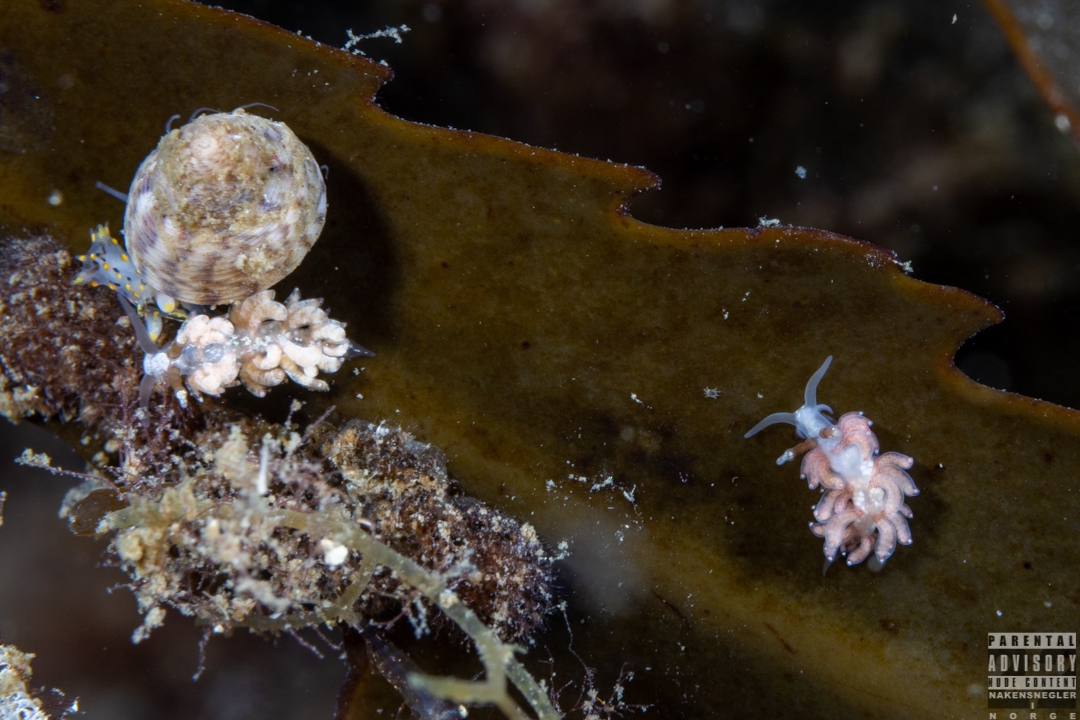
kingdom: Animalia
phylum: Mollusca
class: Gastropoda
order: Nudibranchia
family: Facelinidae
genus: Favorinus
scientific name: Favorinus branchialis
